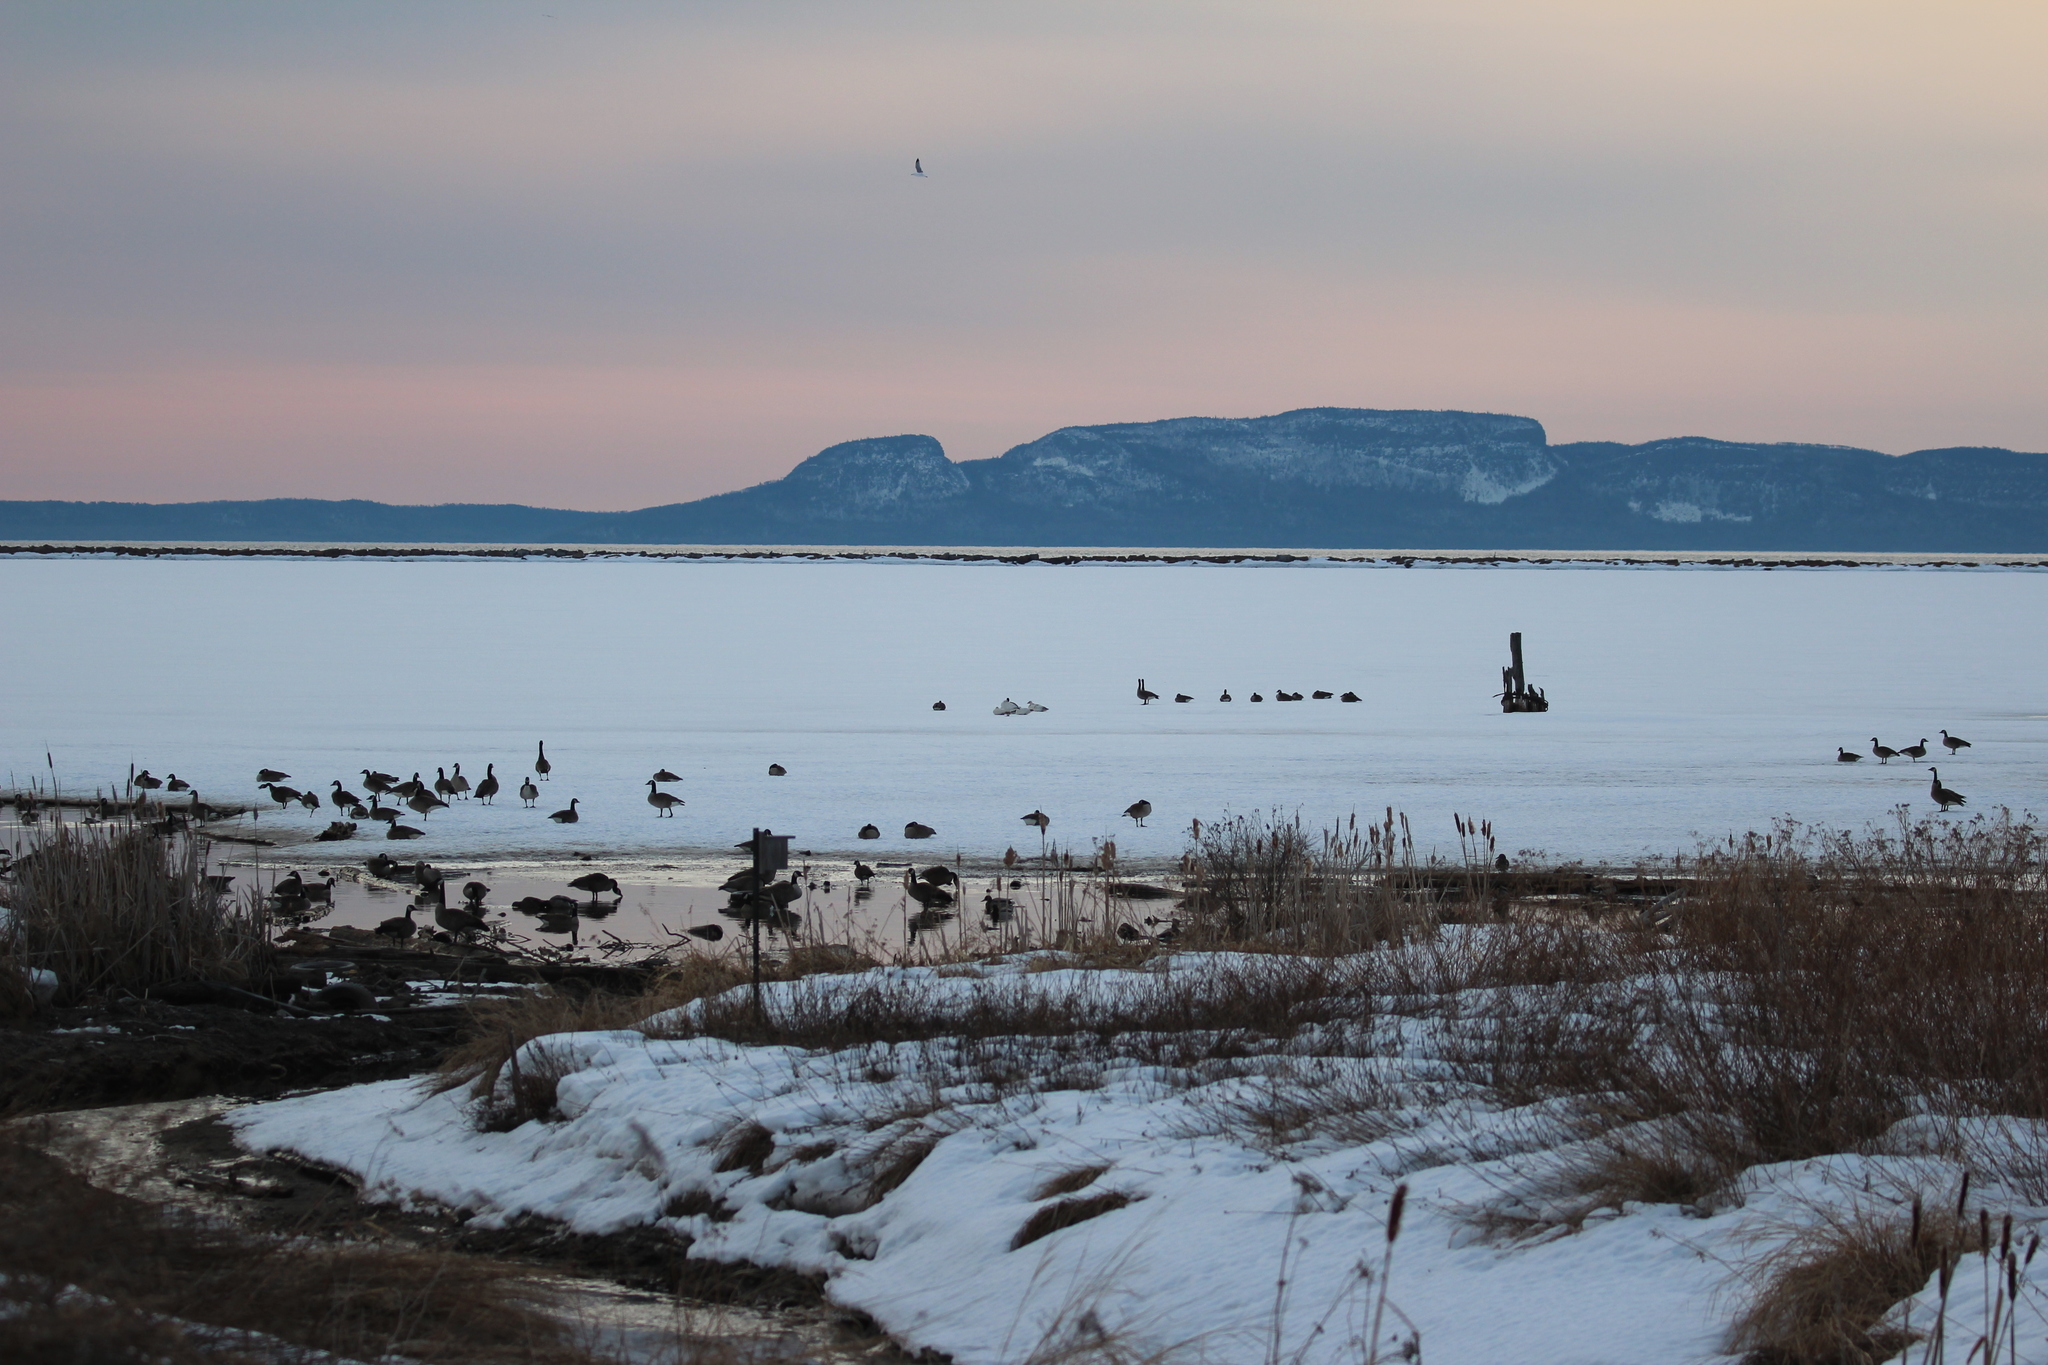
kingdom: Animalia
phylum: Chordata
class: Aves
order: Anseriformes
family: Anatidae
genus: Anser
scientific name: Anser caerulescens
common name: Snow goose
